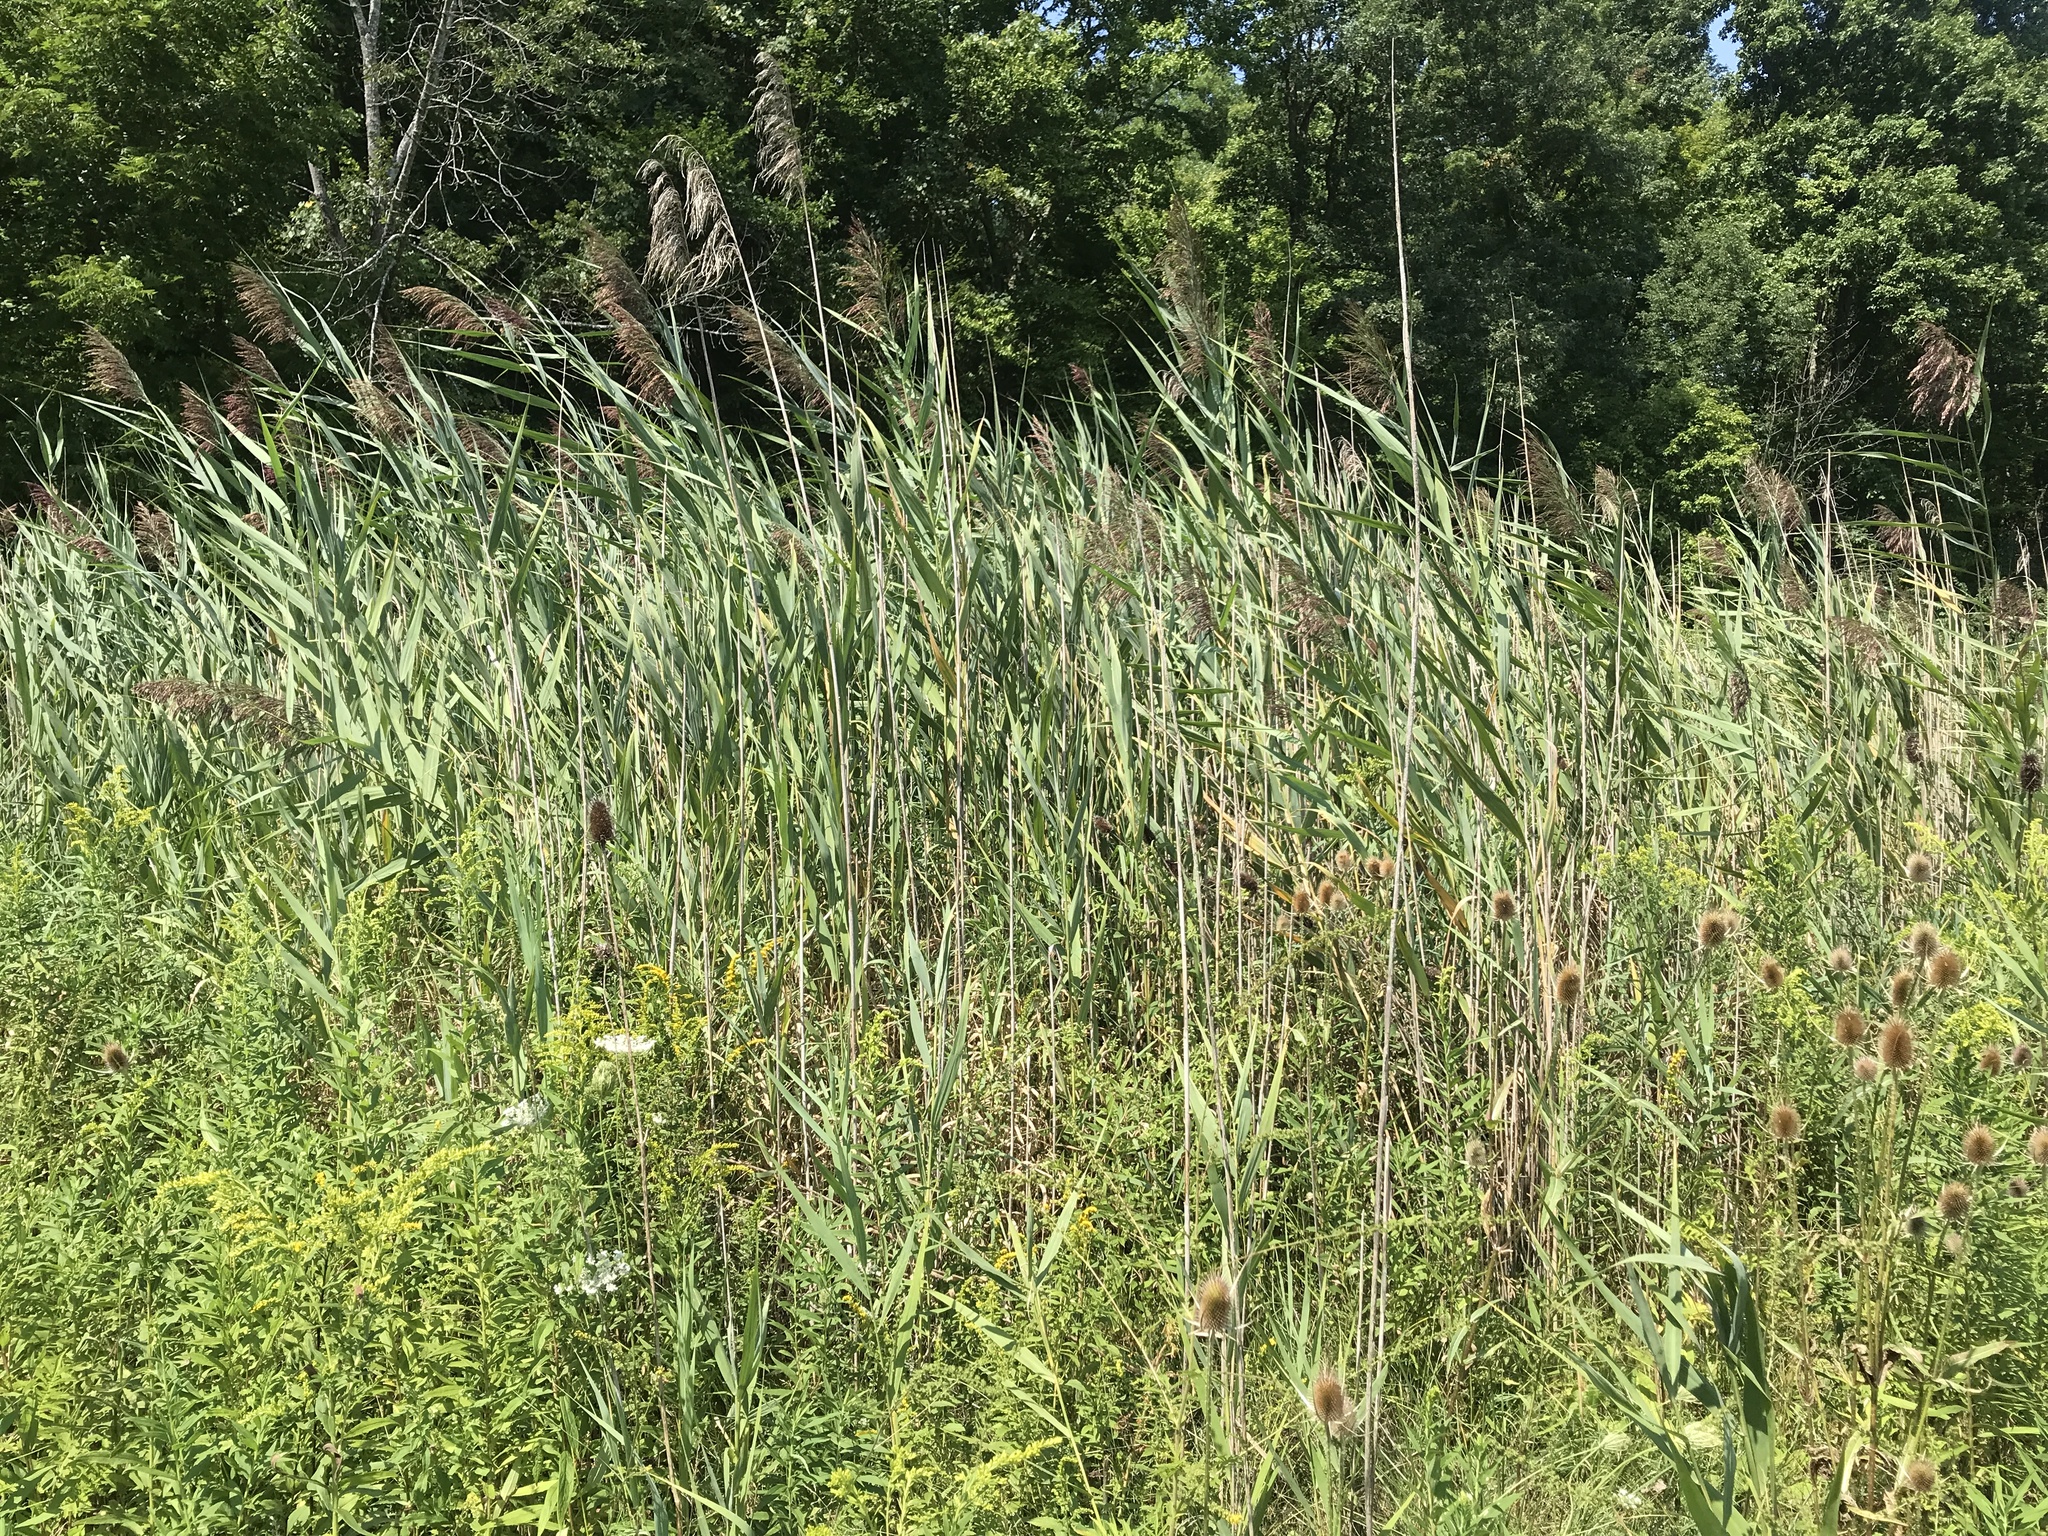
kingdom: Plantae
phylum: Tracheophyta
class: Liliopsida
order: Poales
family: Poaceae
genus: Phragmites
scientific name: Phragmites australis
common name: Common reed
